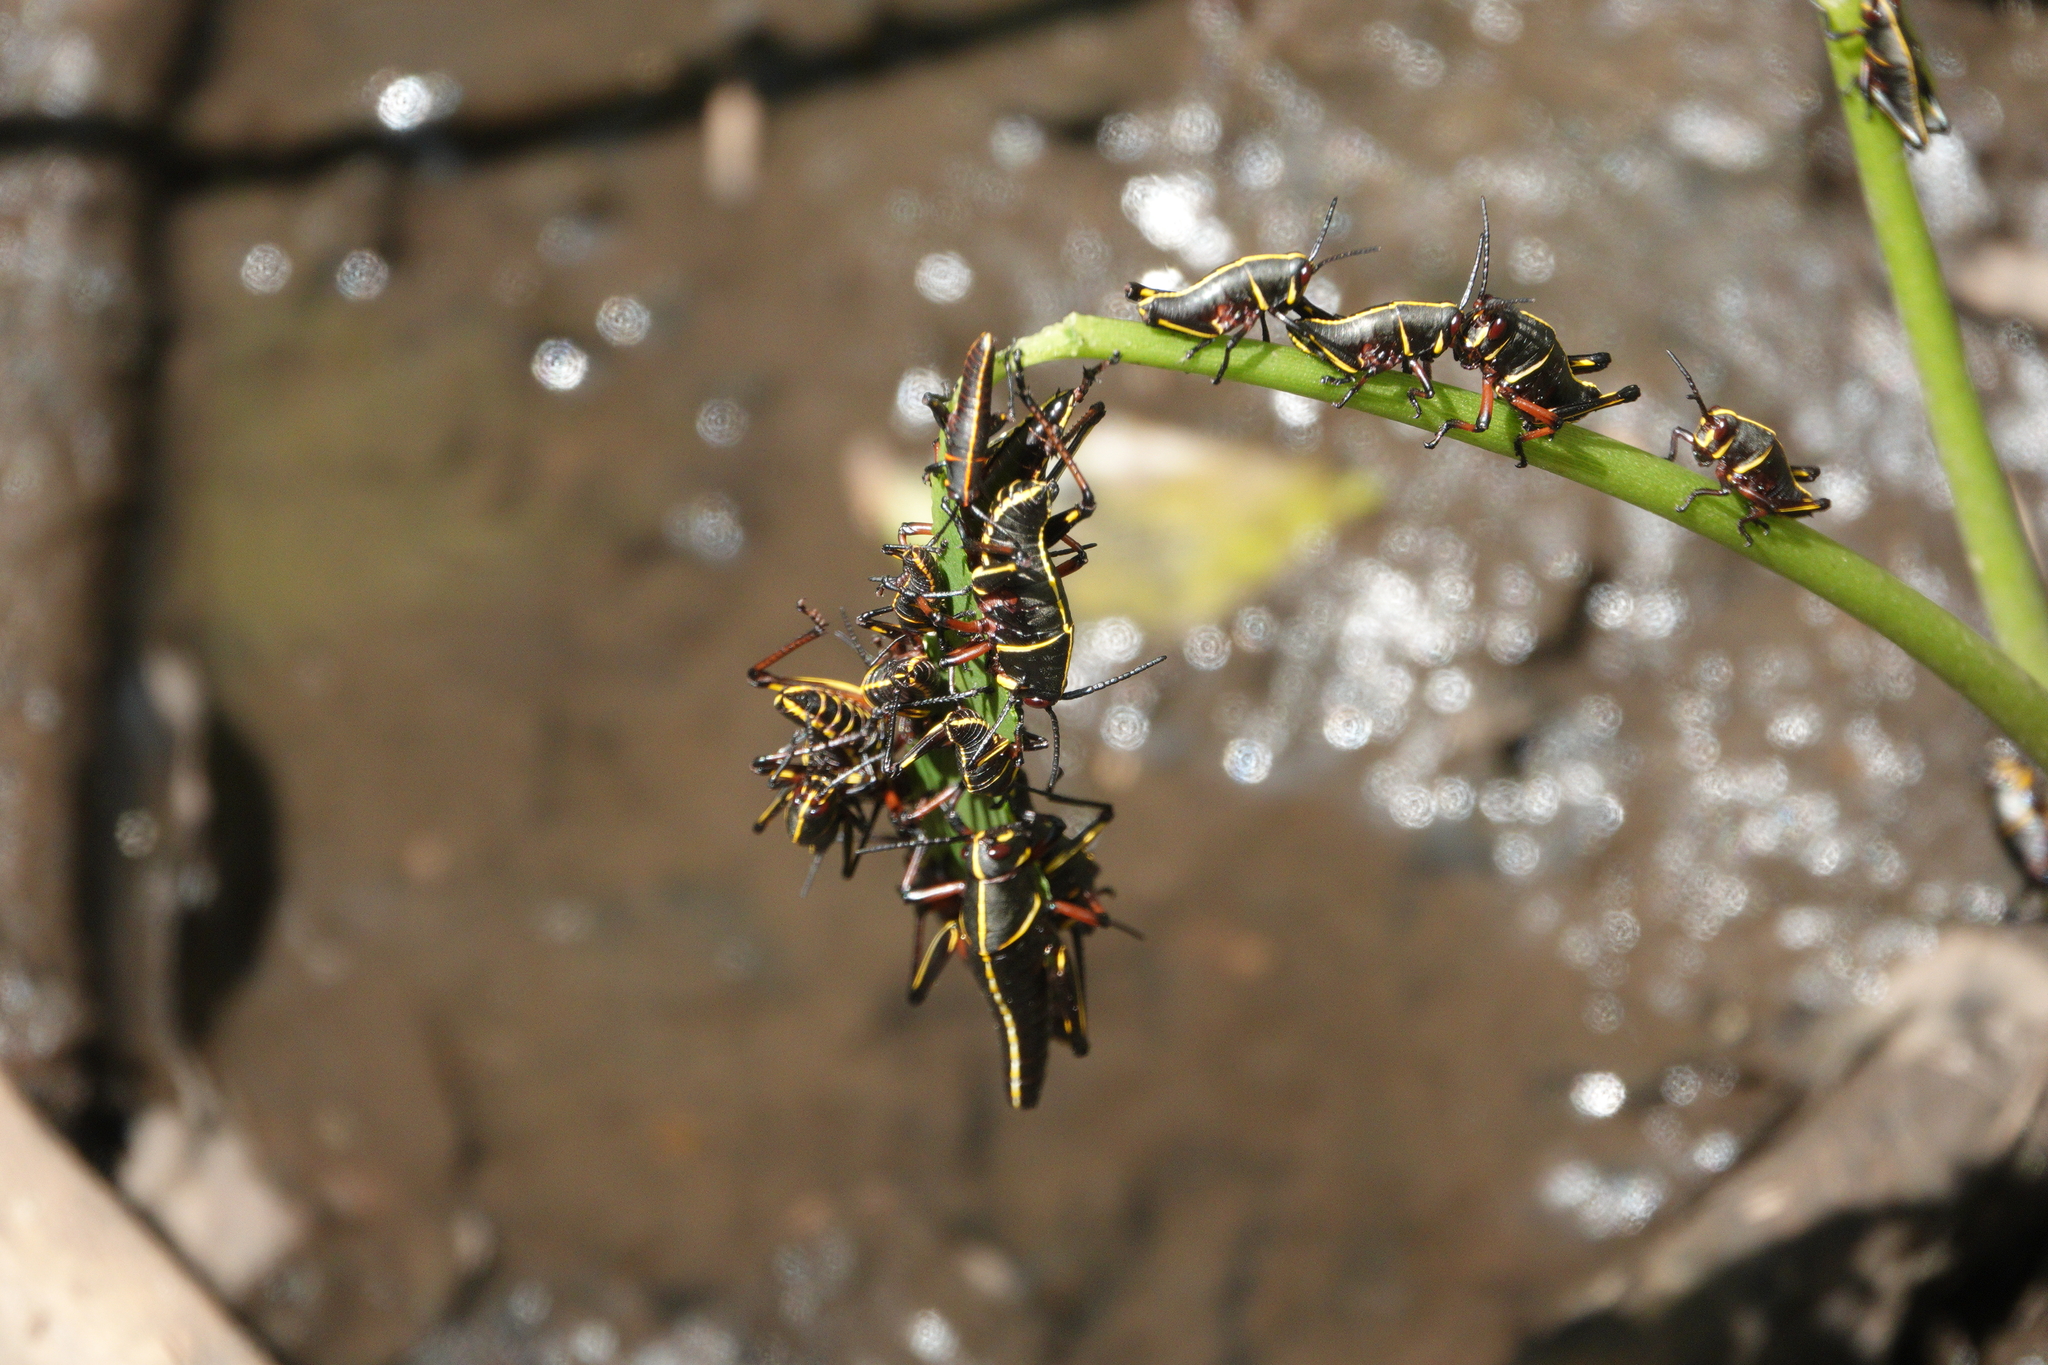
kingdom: Animalia
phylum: Arthropoda
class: Insecta
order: Orthoptera
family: Romaleidae
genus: Romalea
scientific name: Romalea microptera
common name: Eastern lubber grasshopper
